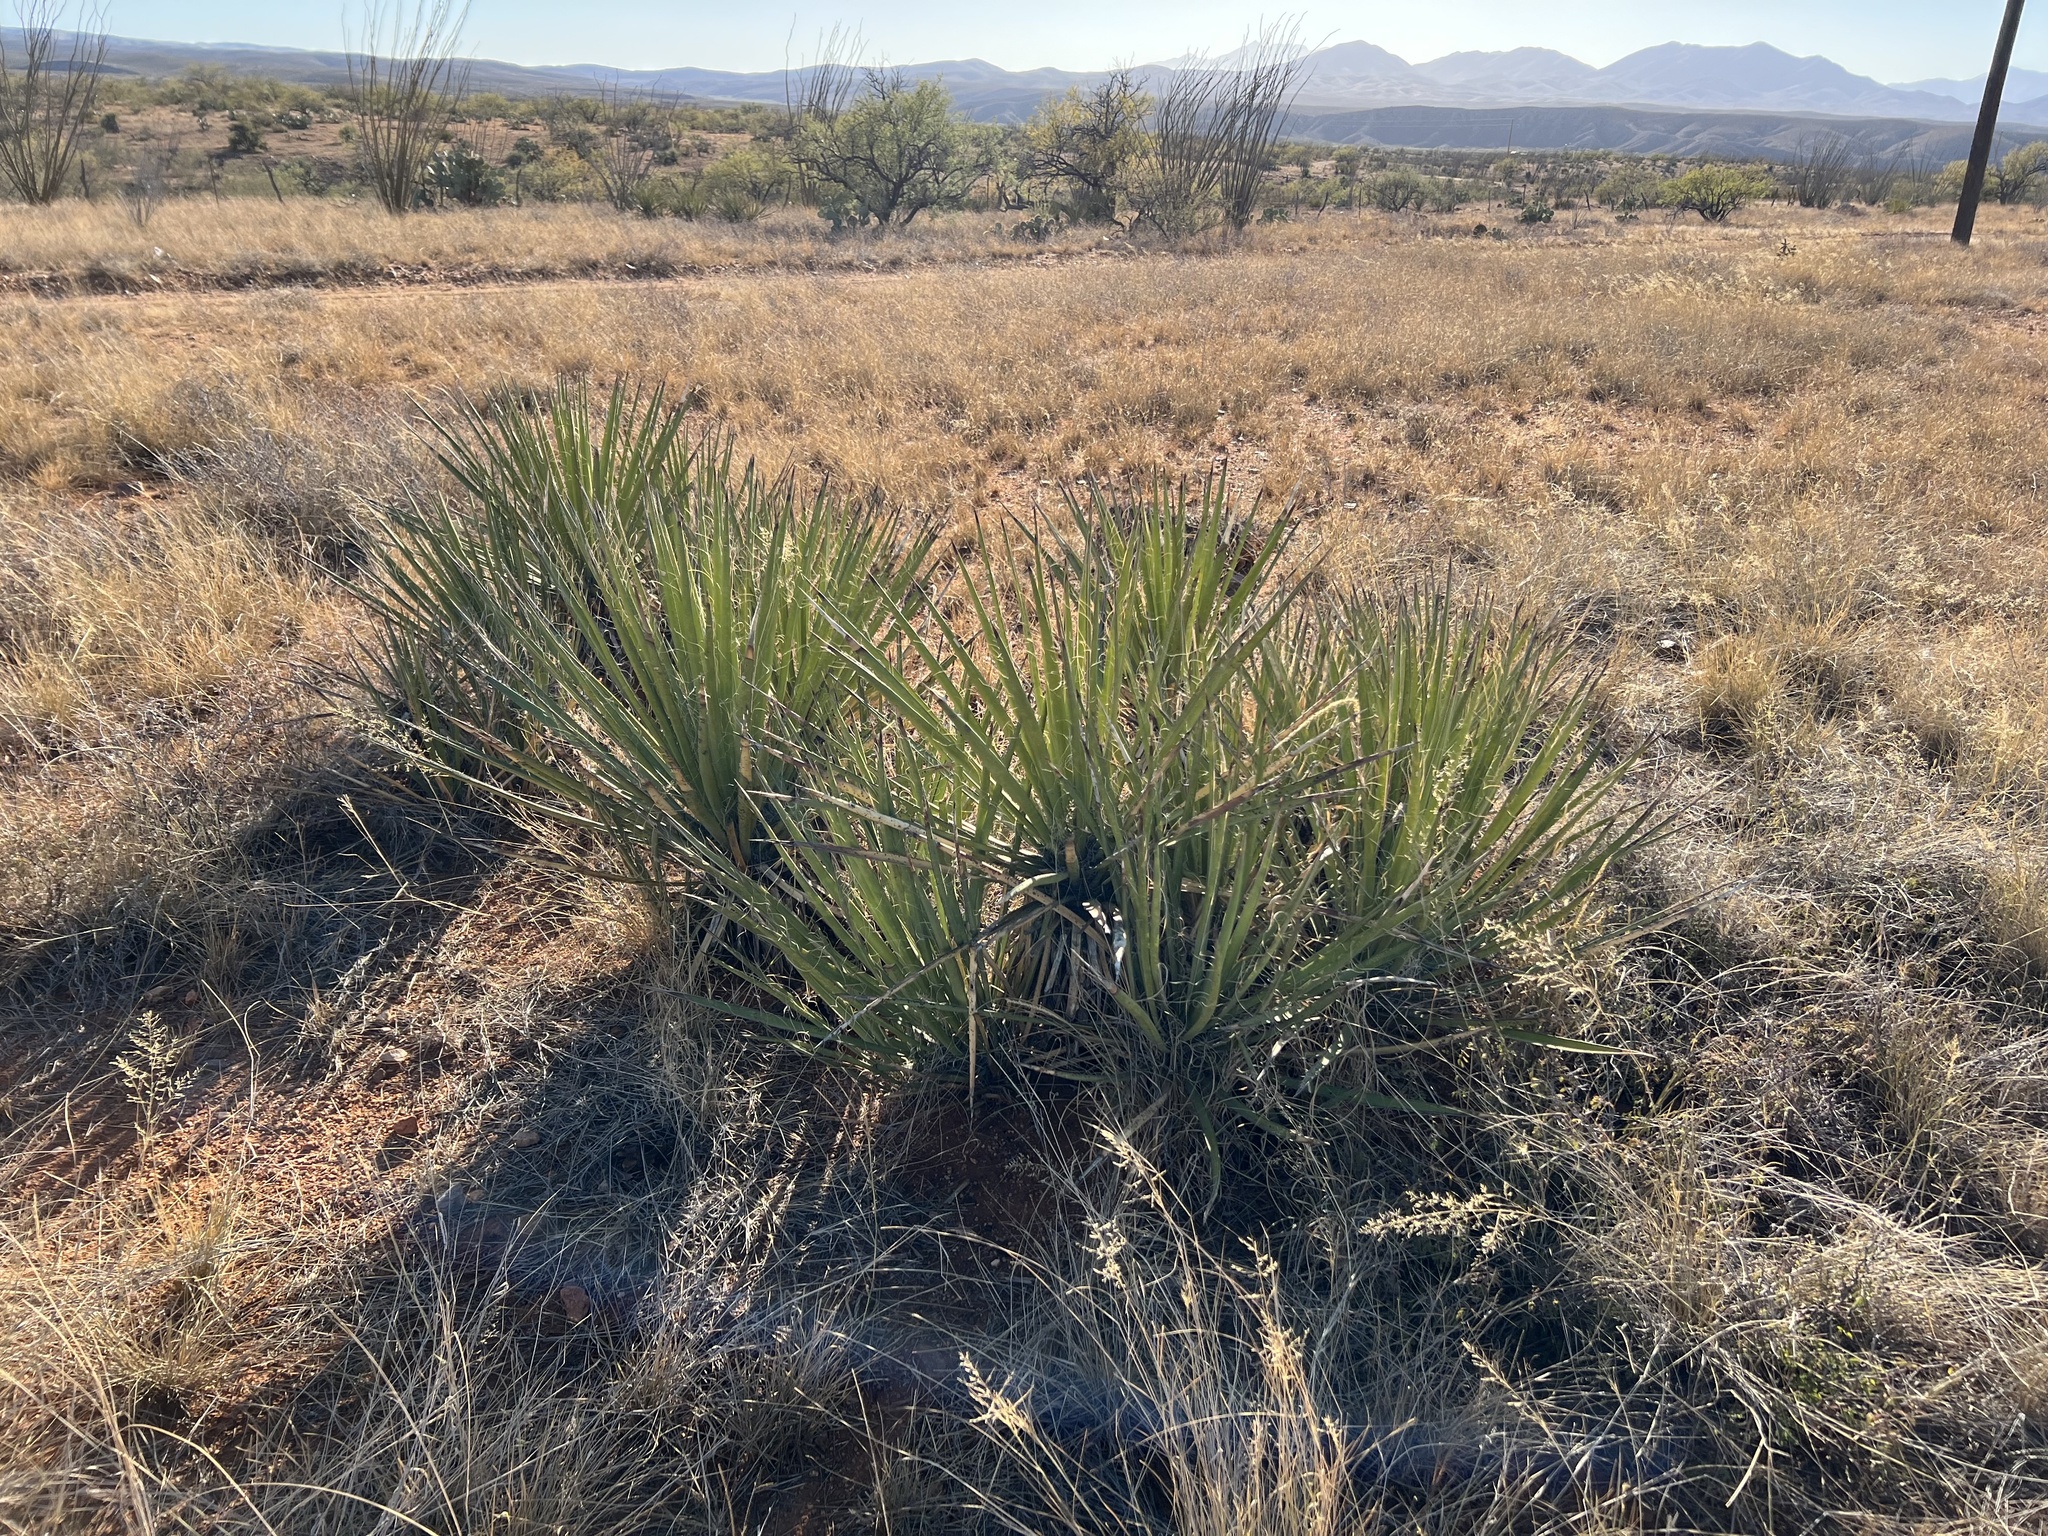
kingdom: Plantae
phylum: Tracheophyta
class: Liliopsida
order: Asparagales
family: Asparagaceae
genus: Yucca
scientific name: Yucca baccata
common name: Banana yucca
